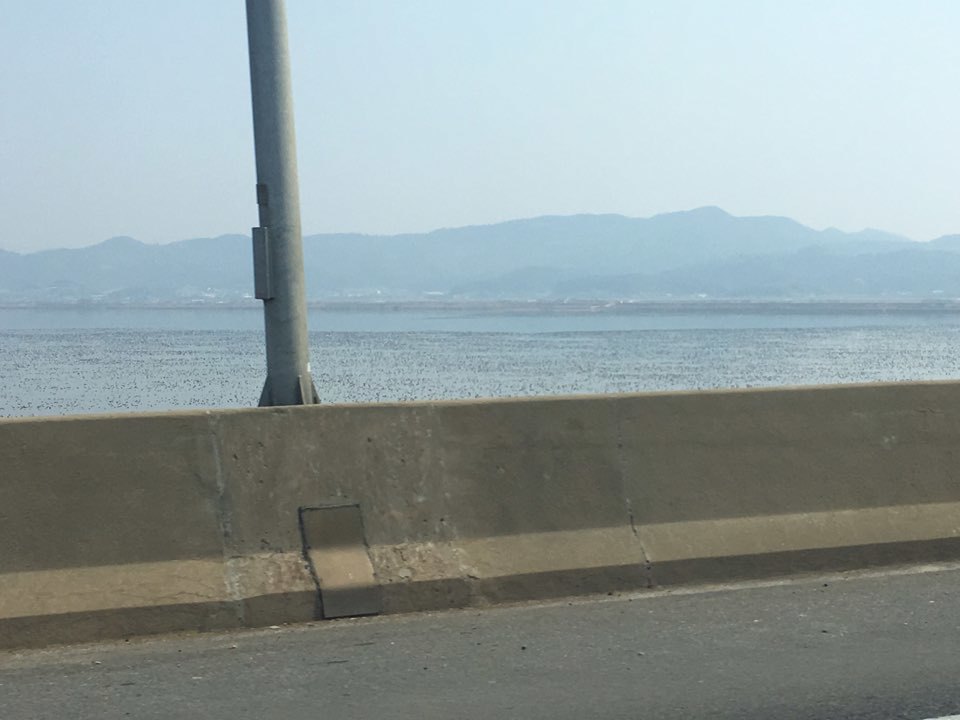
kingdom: Animalia
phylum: Chordata
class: Aves
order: Anseriformes
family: Anatidae
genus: Sibirionetta
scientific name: Sibirionetta formosa
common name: Baikal teal
